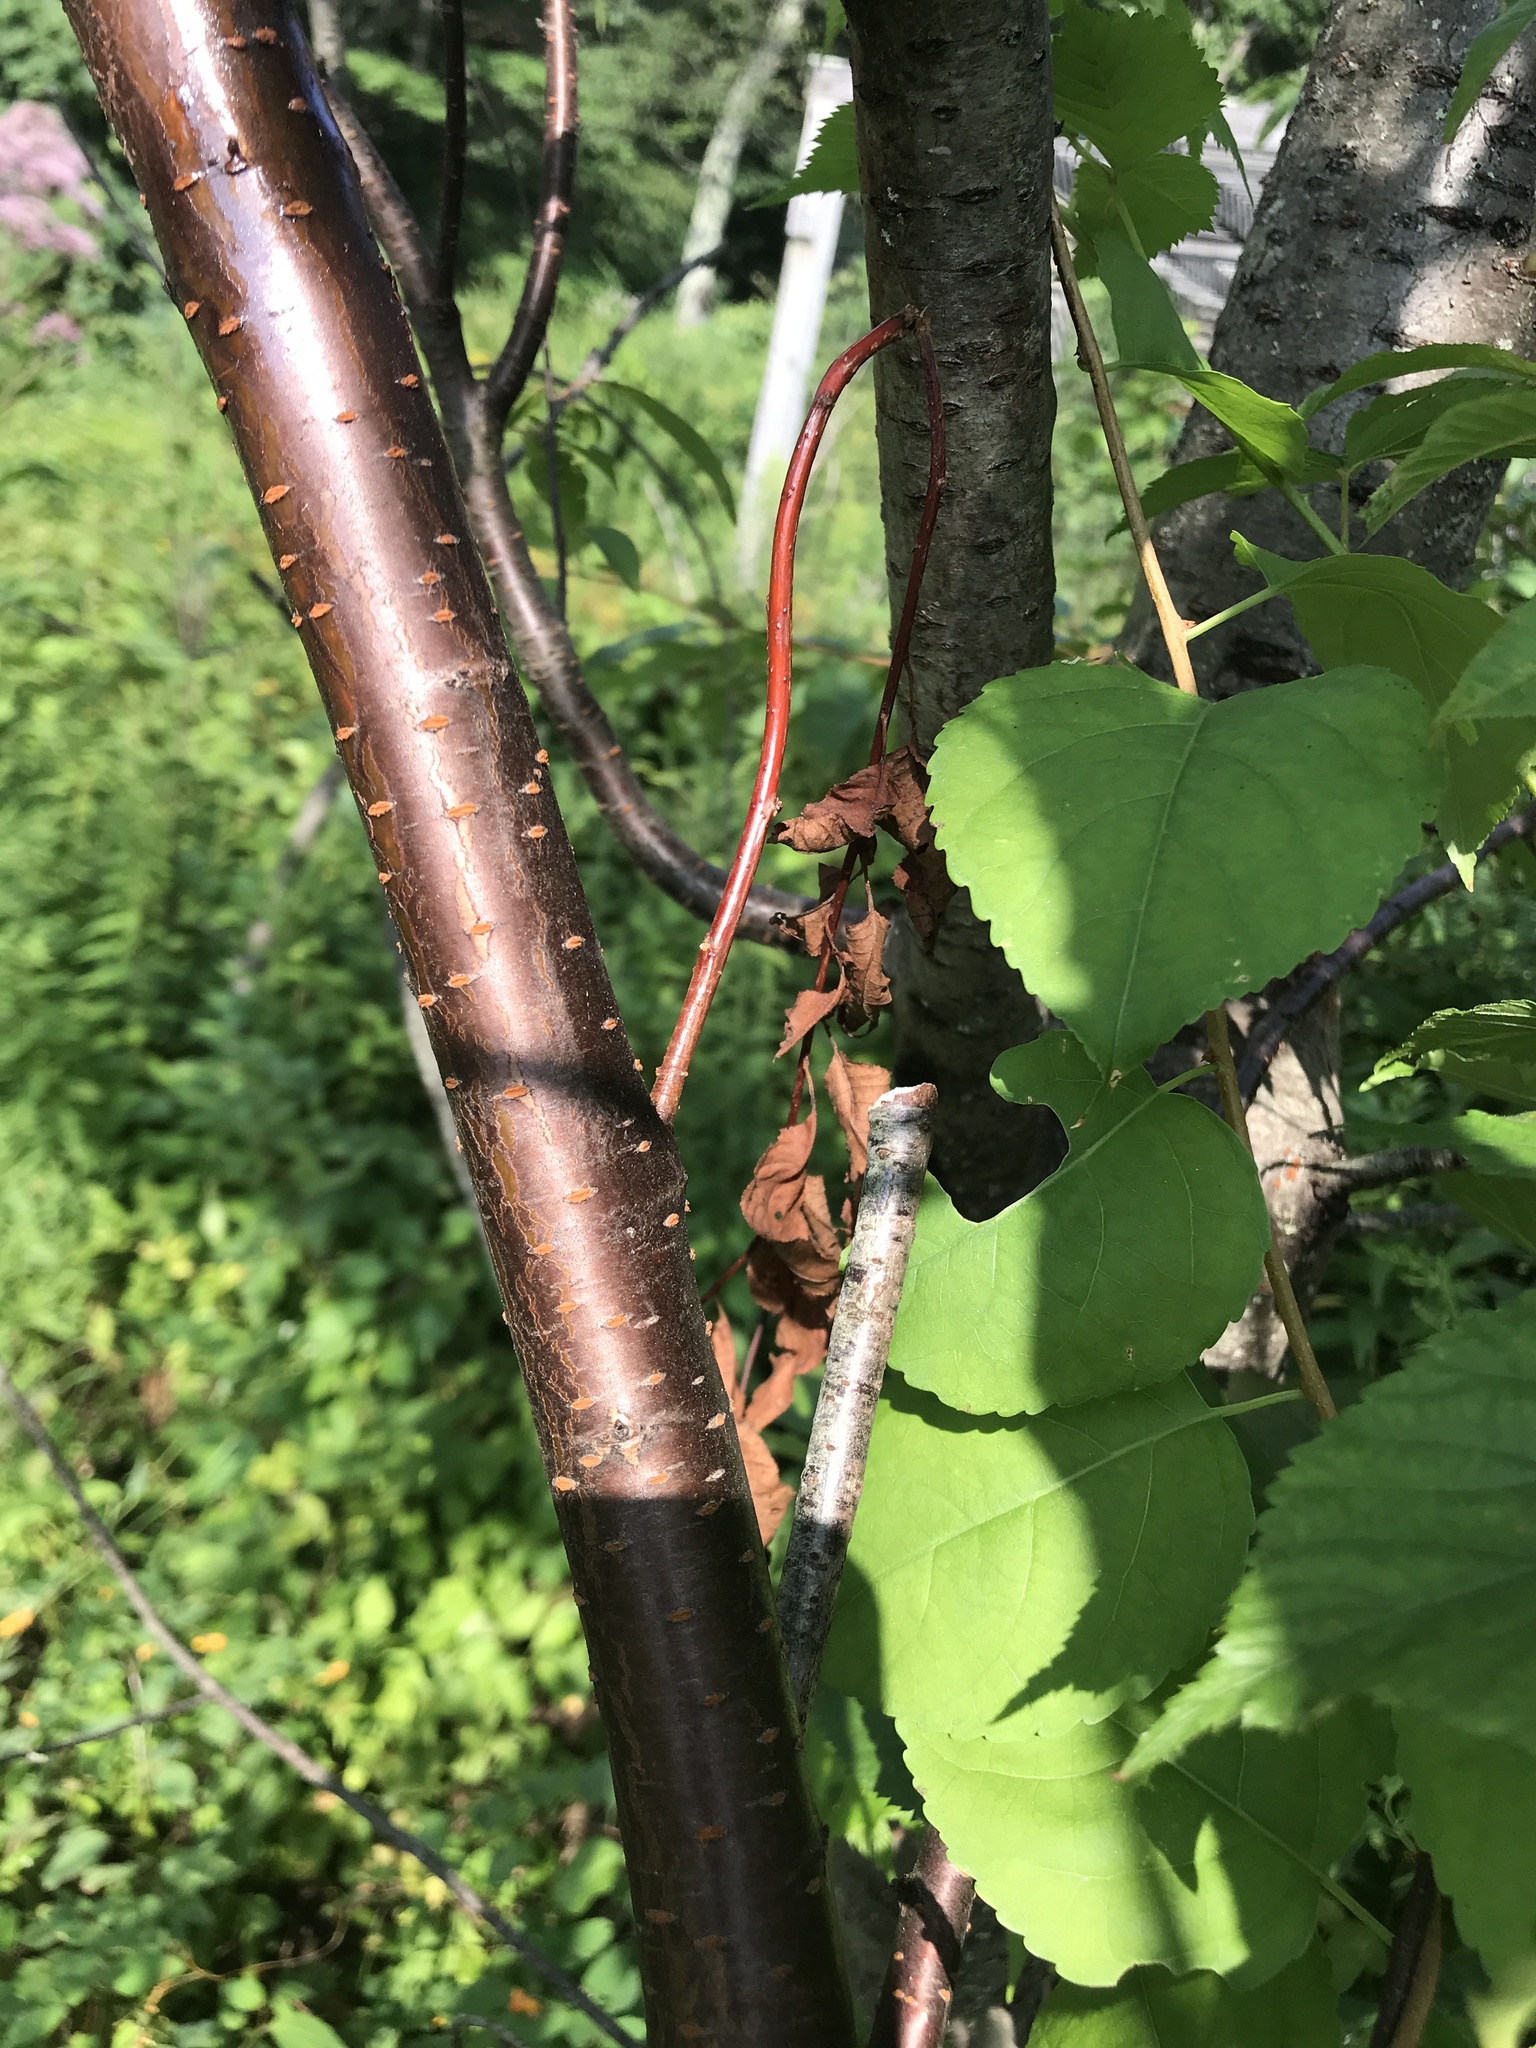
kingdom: Plantae
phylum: Tracheophyta
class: Magnoliopsida
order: Rosales
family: Rosaceae
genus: Prunus
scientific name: Prunus pensylvanica
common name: Pin cherry
